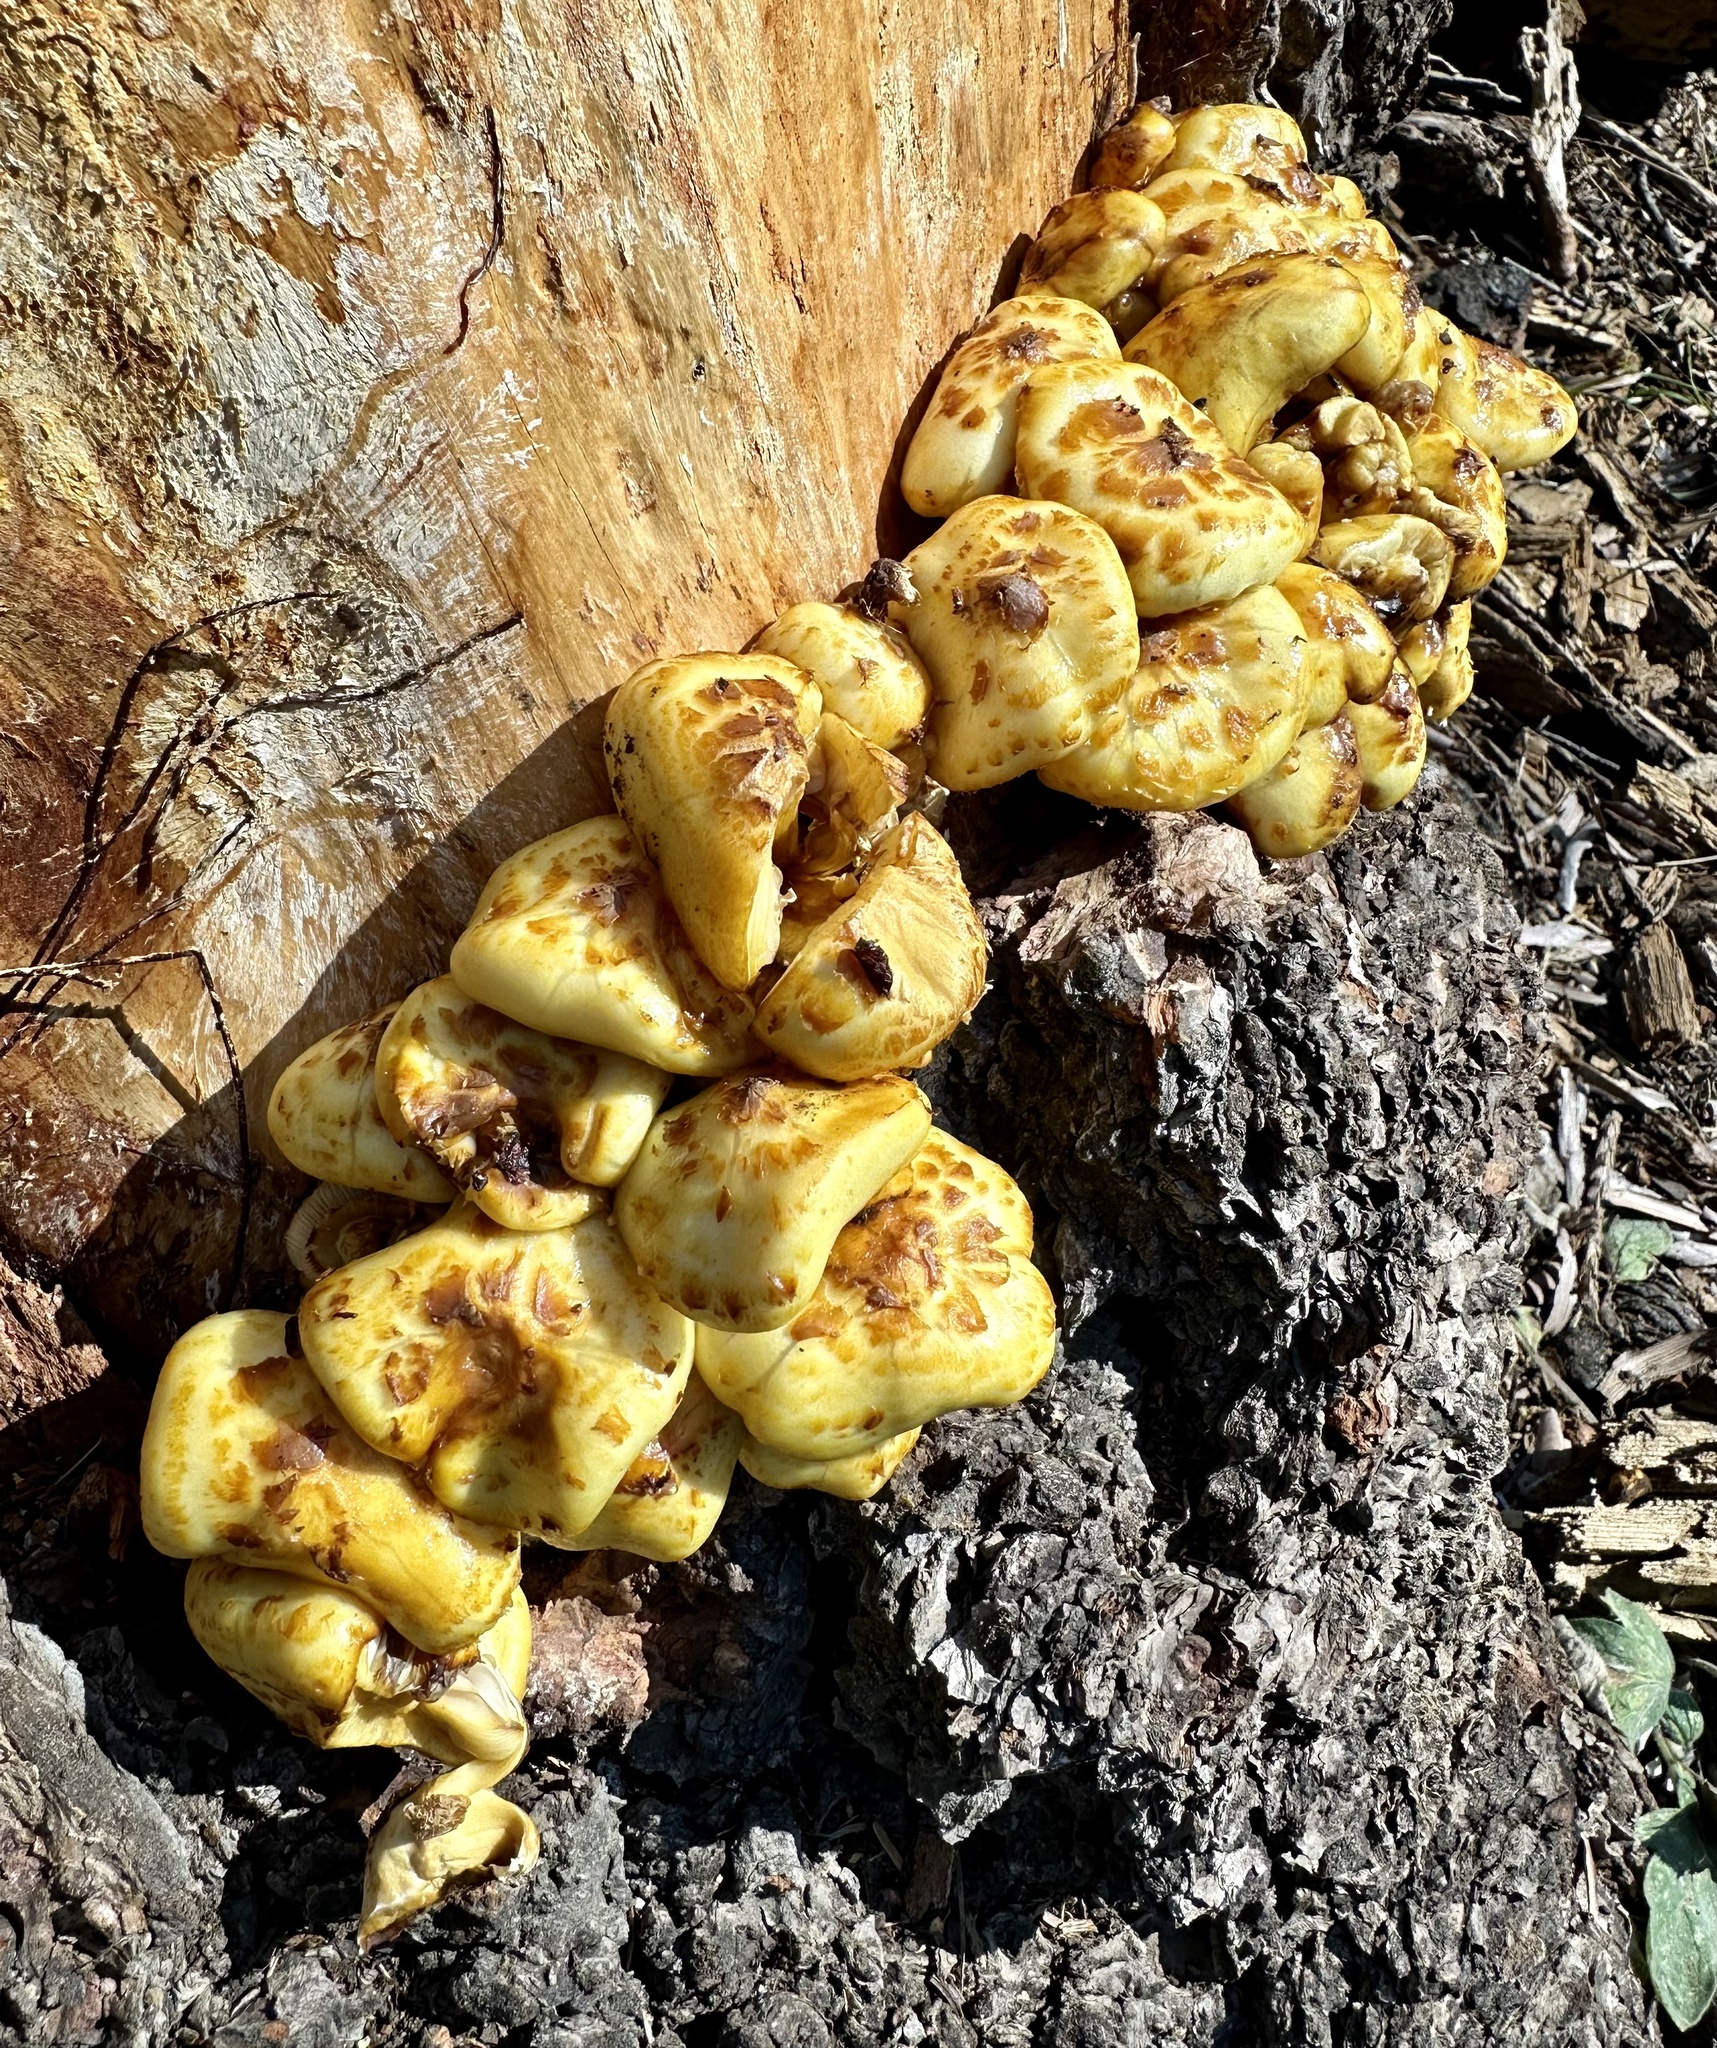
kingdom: Fungi
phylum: Basidiomycota
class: Agaricomycetes
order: Agaricales
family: Strophariaceae
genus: Pholiota
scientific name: Pholiota aurivella
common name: Golden scalycap
